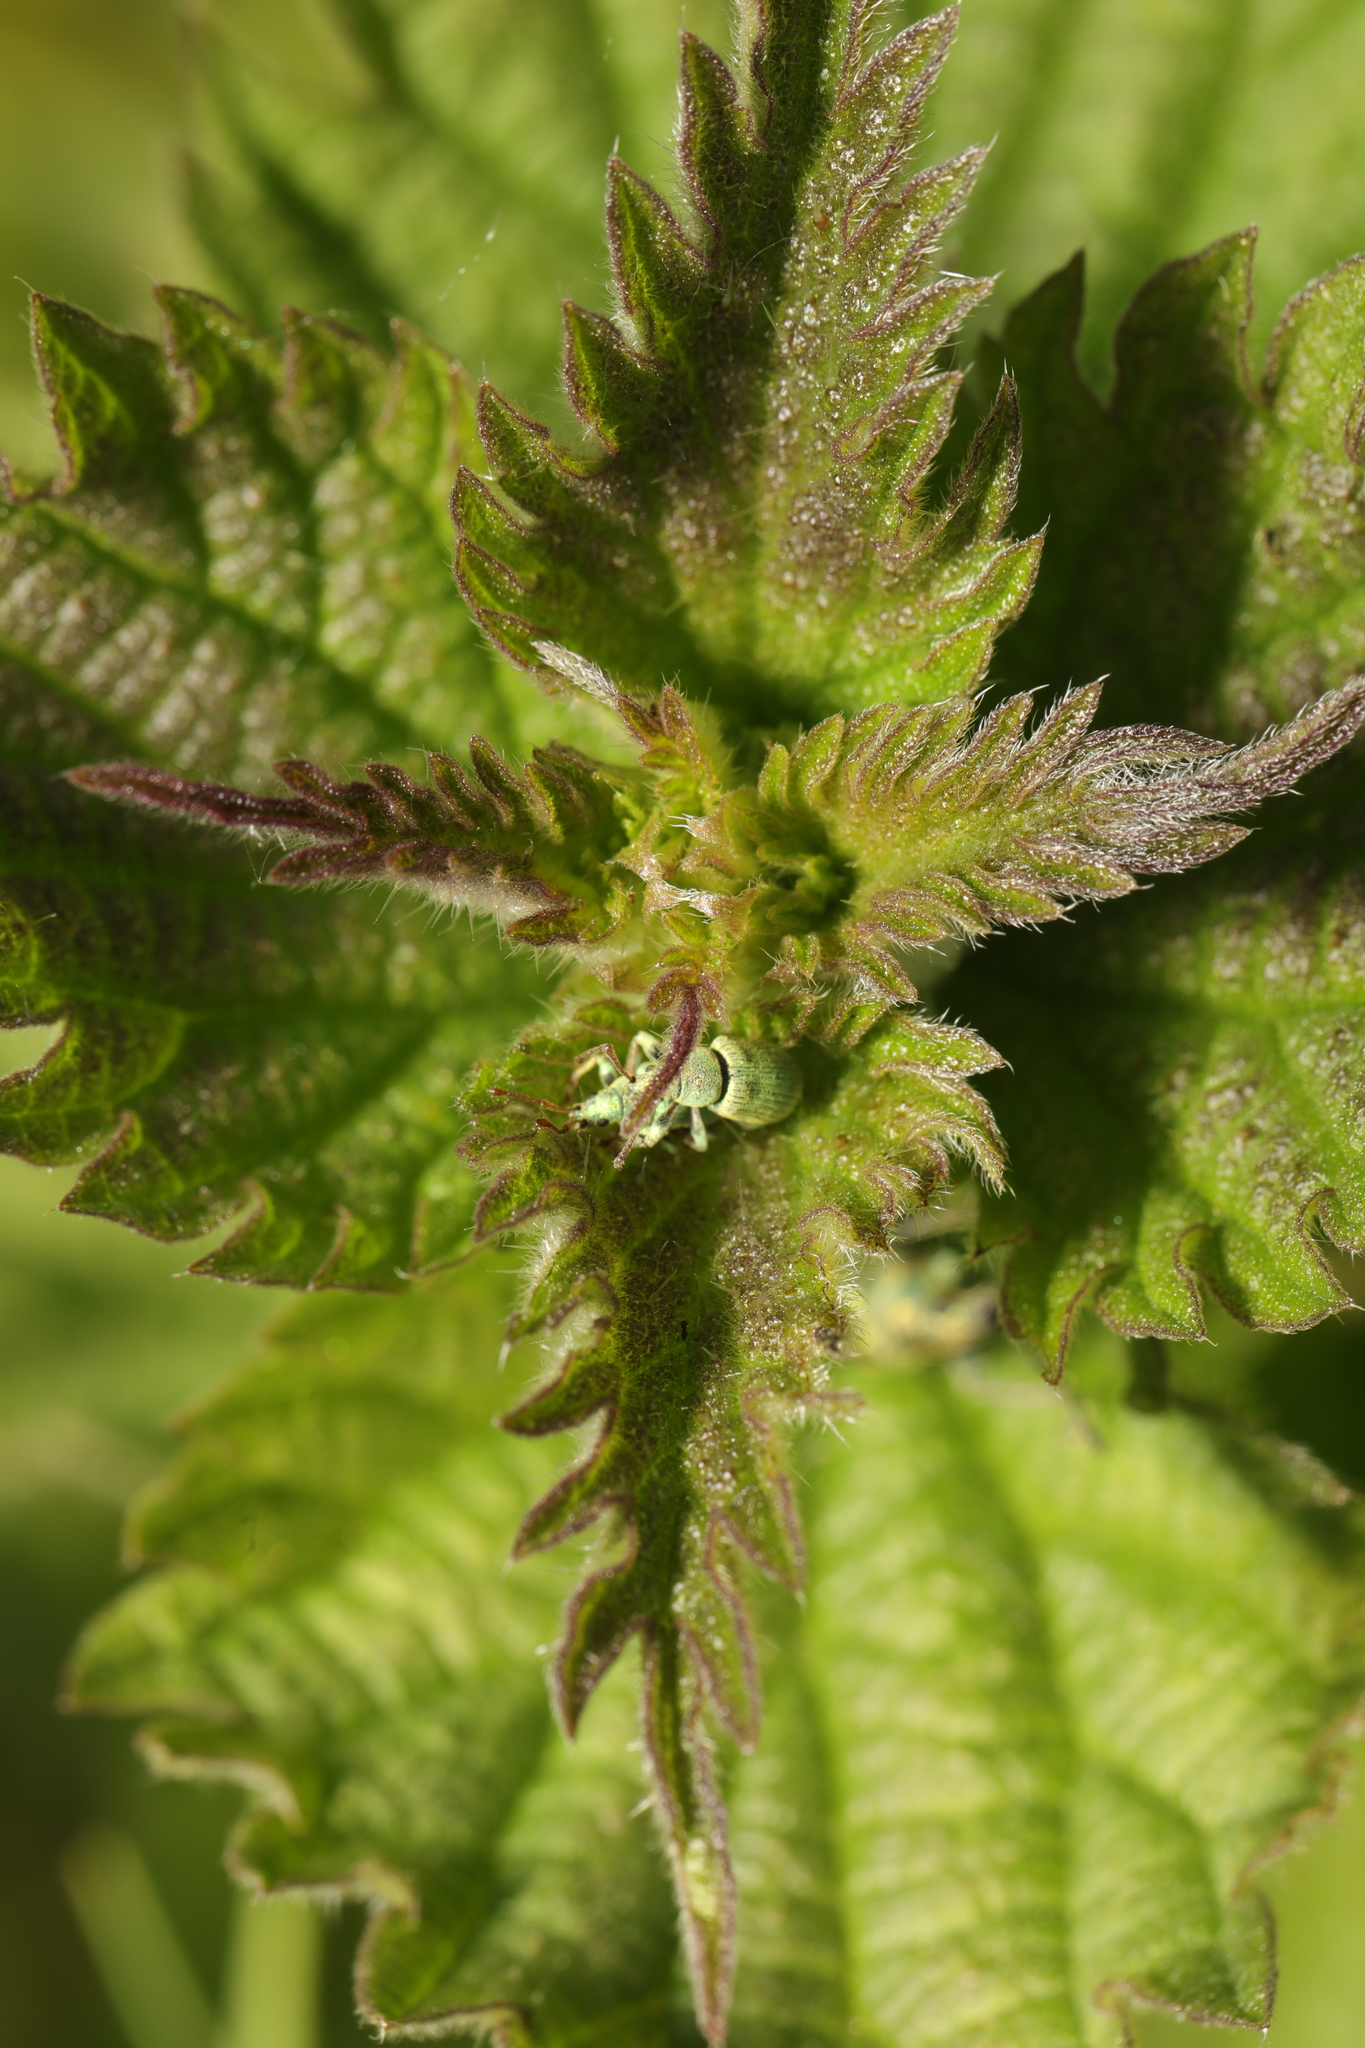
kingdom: Animalia
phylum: Arthropoda
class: Insecta
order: Coleoptera
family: Curculionidae
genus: Phyllobius
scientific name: Phyllobius roboretanus
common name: Small green nettle weevil
